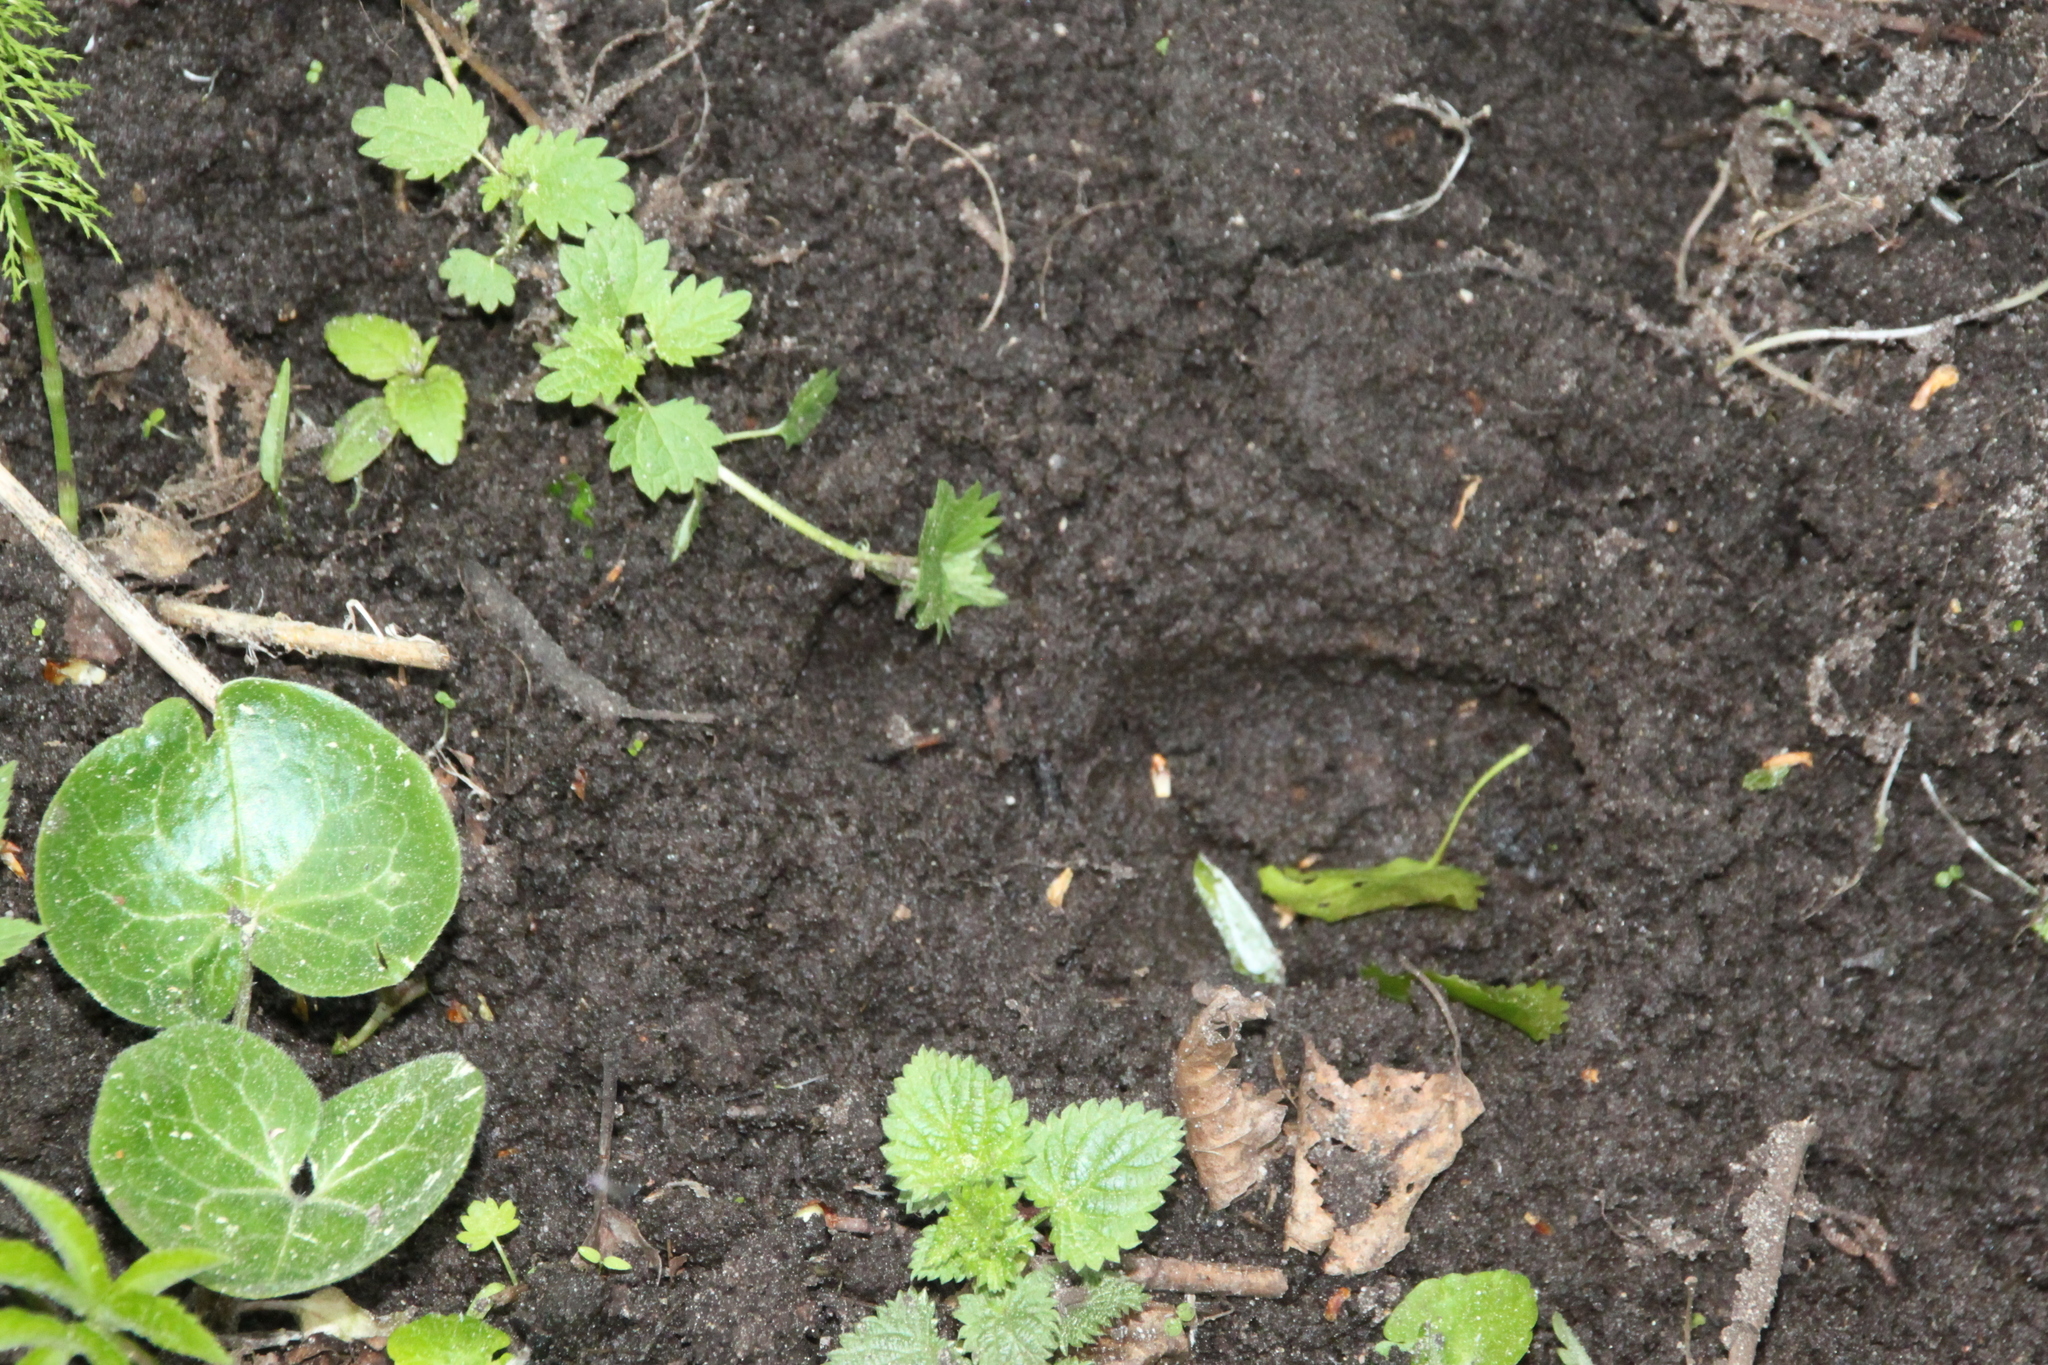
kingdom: Animalia
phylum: Chordata
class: Mammalia
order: Artiodactyla
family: Suidae
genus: Sus
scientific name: Sus scrofa
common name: Wild boar
